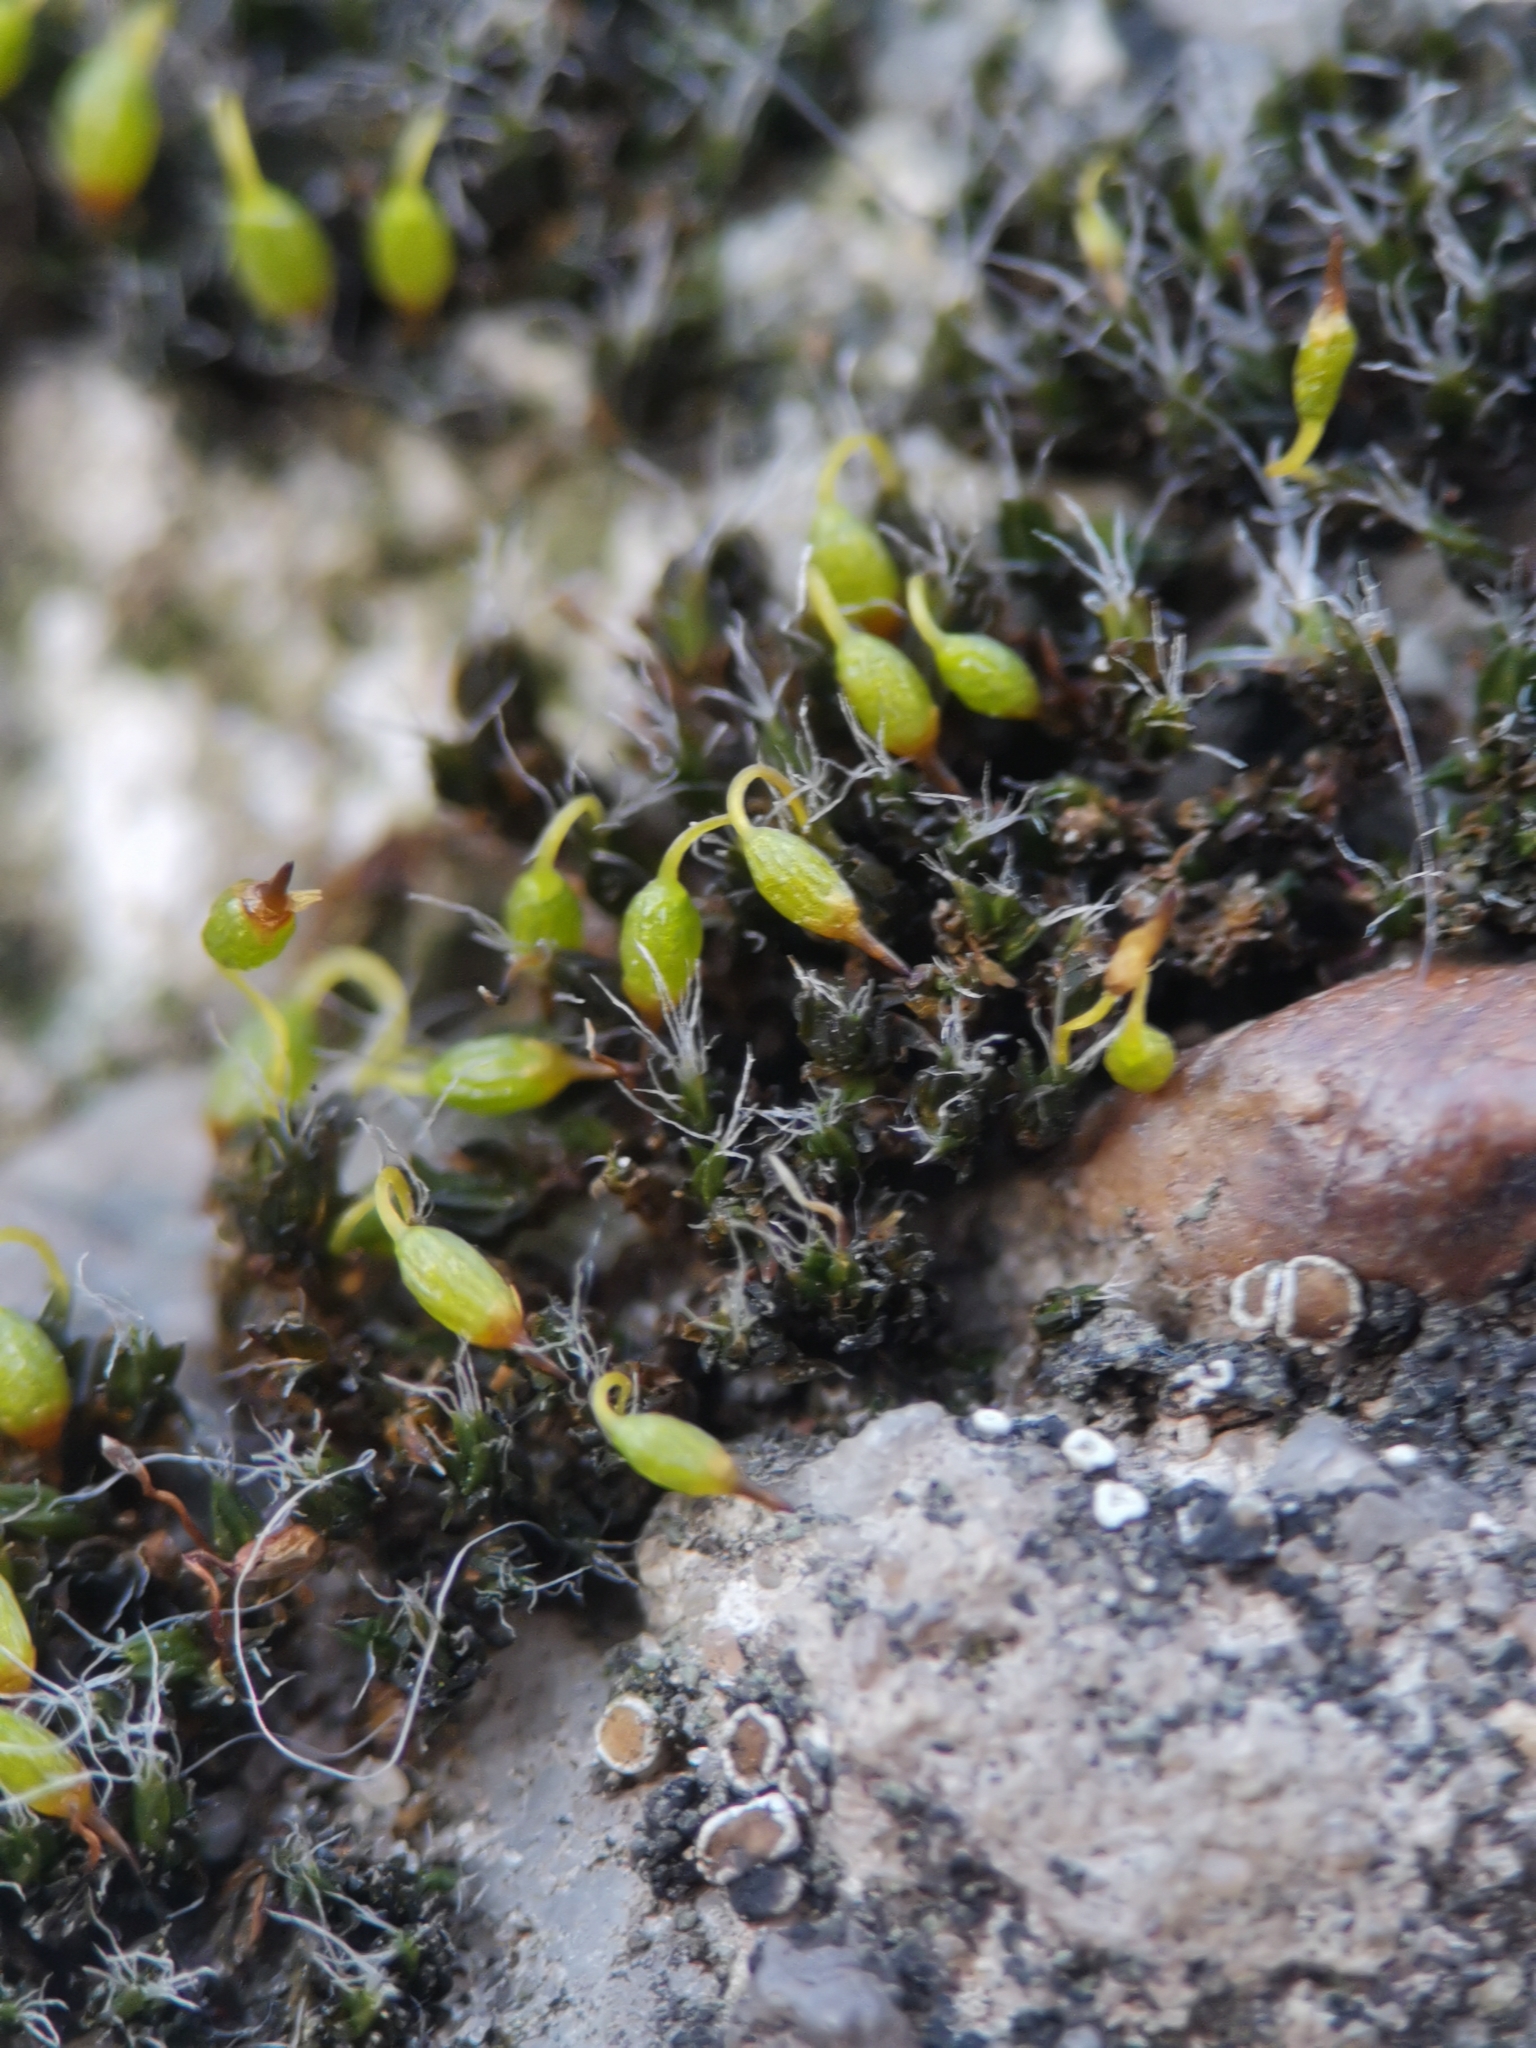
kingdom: Plantae
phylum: Bryophyta
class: Bryopsida
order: Grimmiales
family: Grimmiaceae
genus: Grimmia
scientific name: Grimmia pulvinata
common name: Grey-cushioned grimmia
